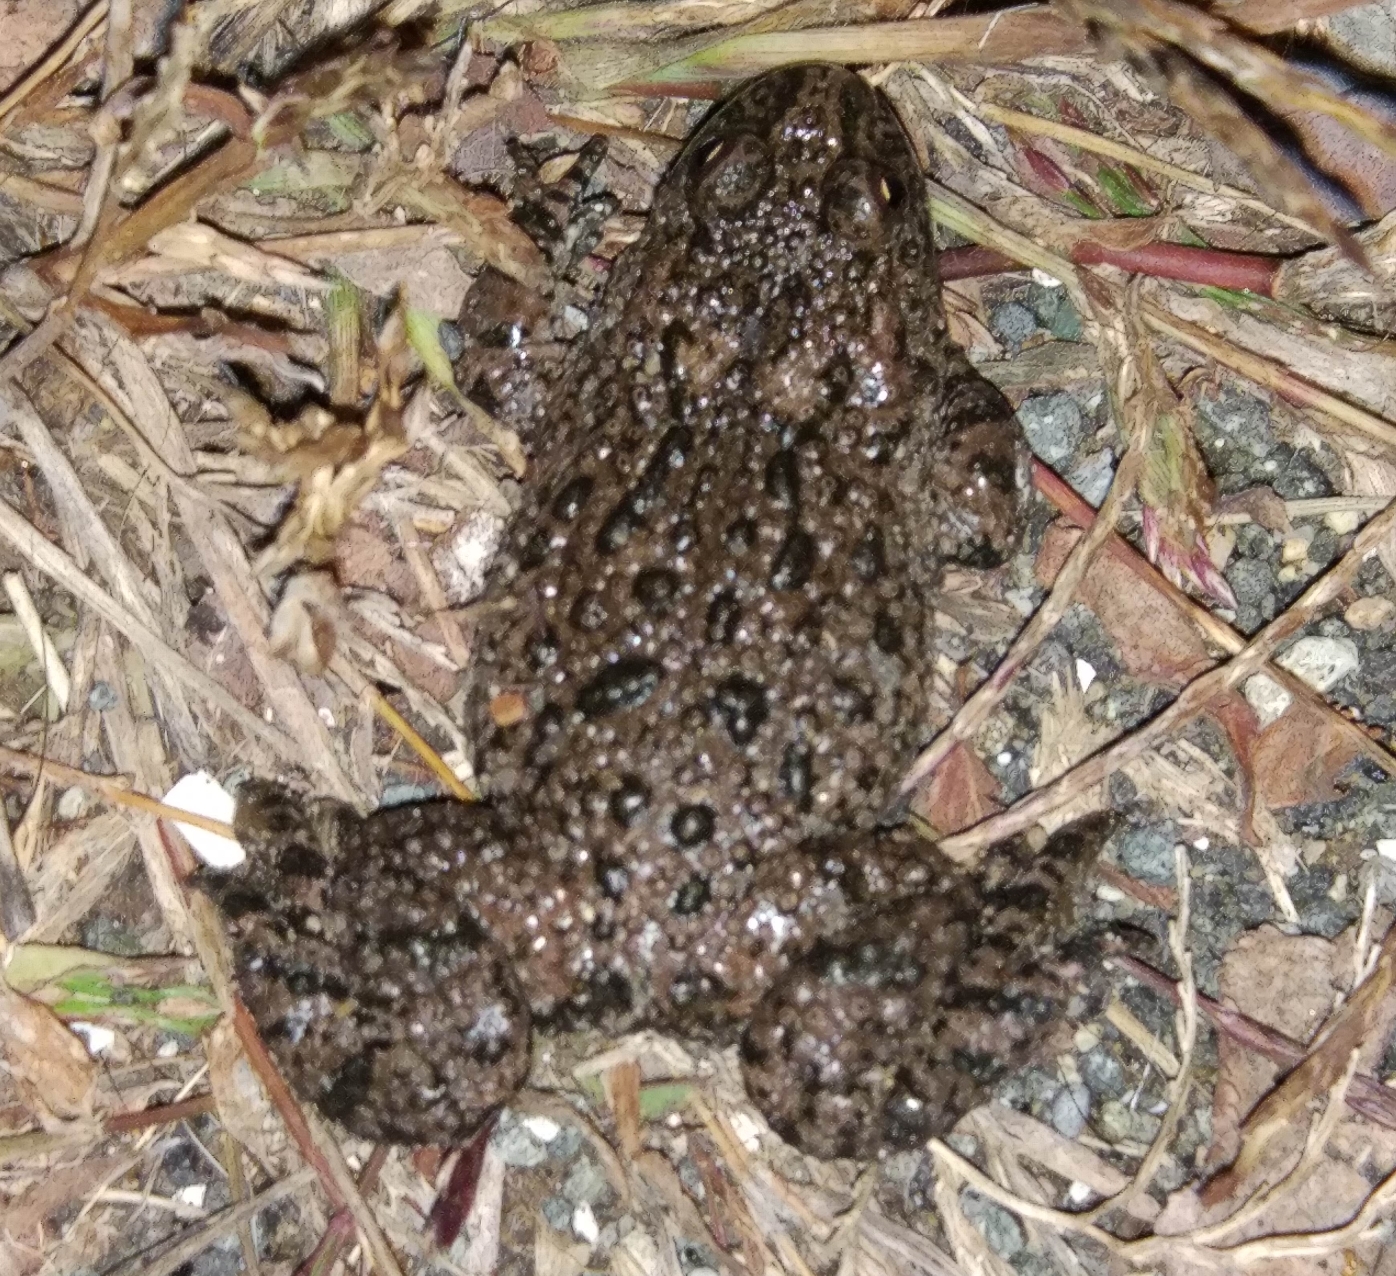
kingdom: Animalia
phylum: Chordata
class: Amphibia
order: Anura
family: Bombinatoridae
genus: Bombina
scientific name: Bombina bombina
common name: Fire-bellied toad
